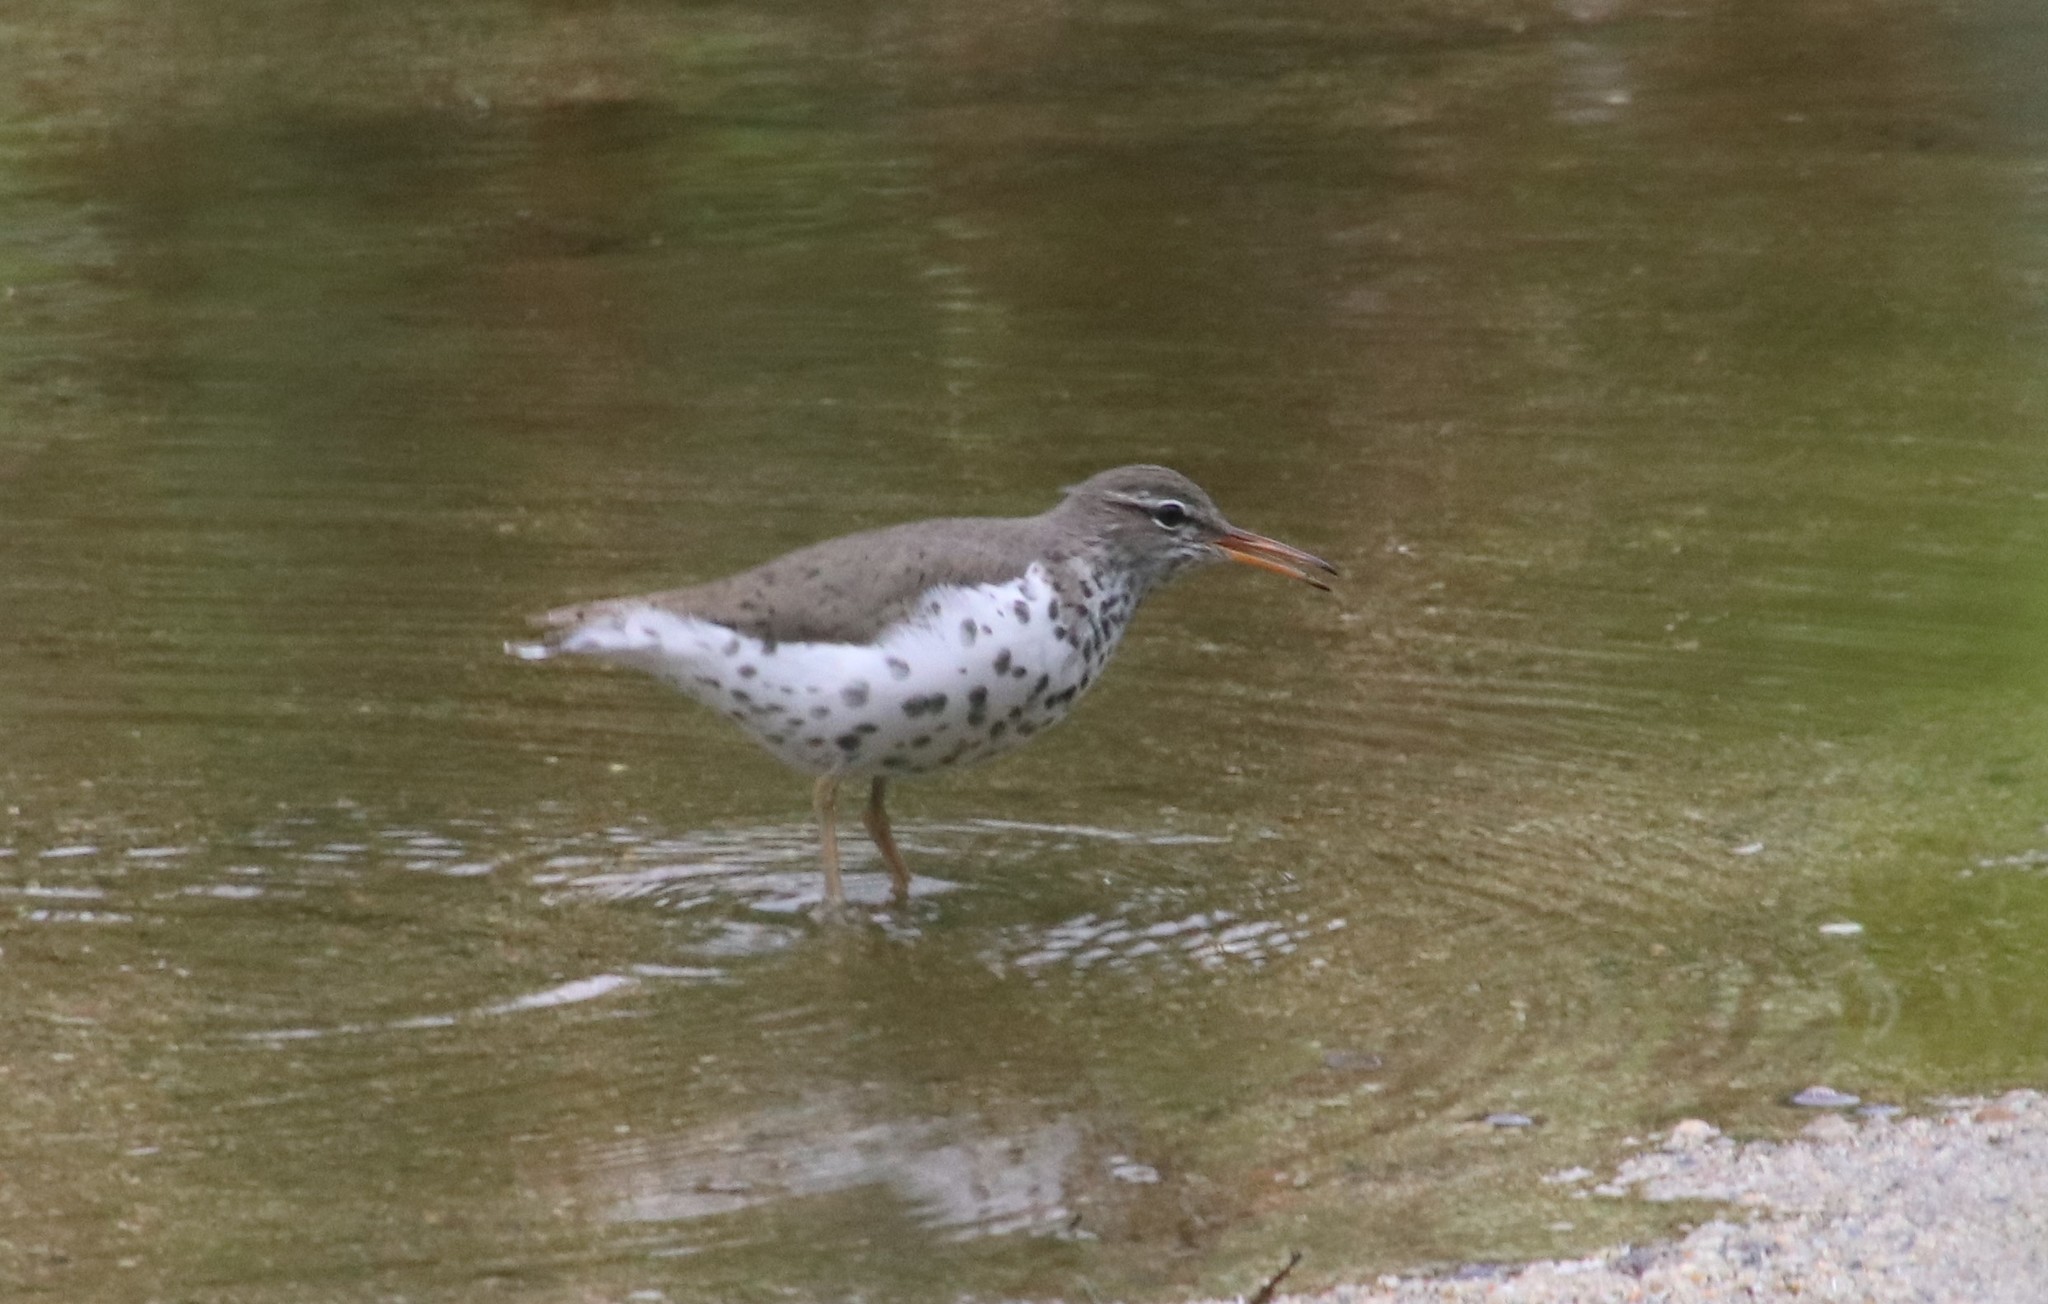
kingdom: Animalia
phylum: Chordata
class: Aves
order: Charadriiformes
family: Scolopacidae
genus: Actitis
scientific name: Actitis macularius
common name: Spotted sandpiper
